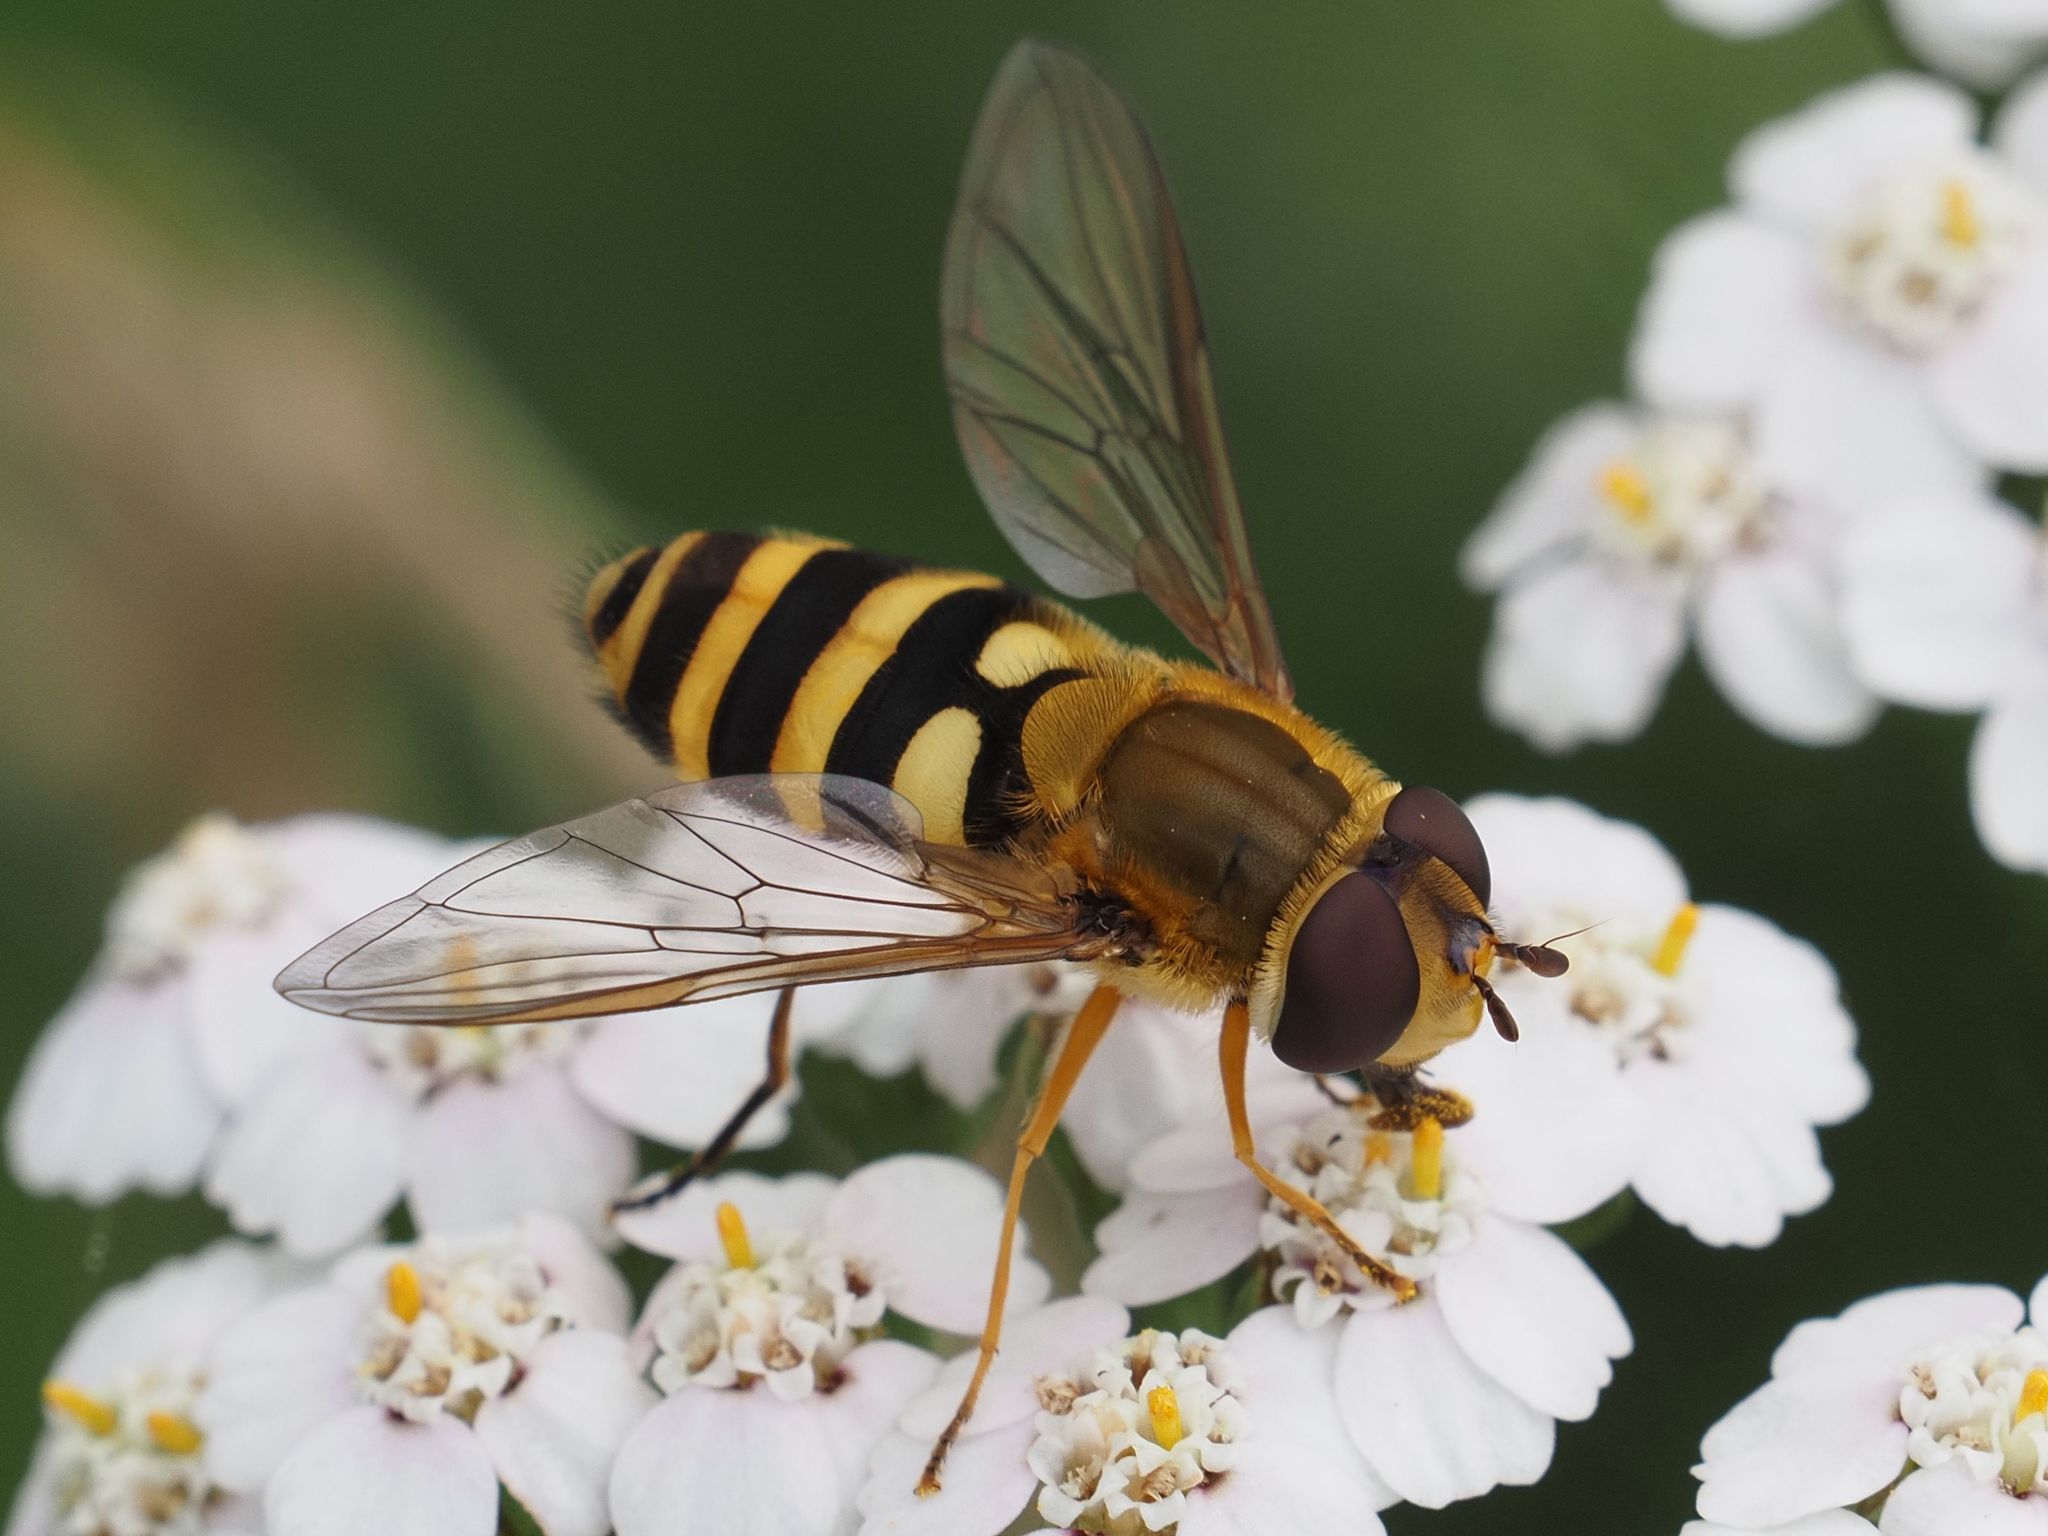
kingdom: Animalia
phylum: Arthropoda
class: Insecta
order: Diptera
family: Syrphidae
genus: Syrphus
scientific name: Syrphus
